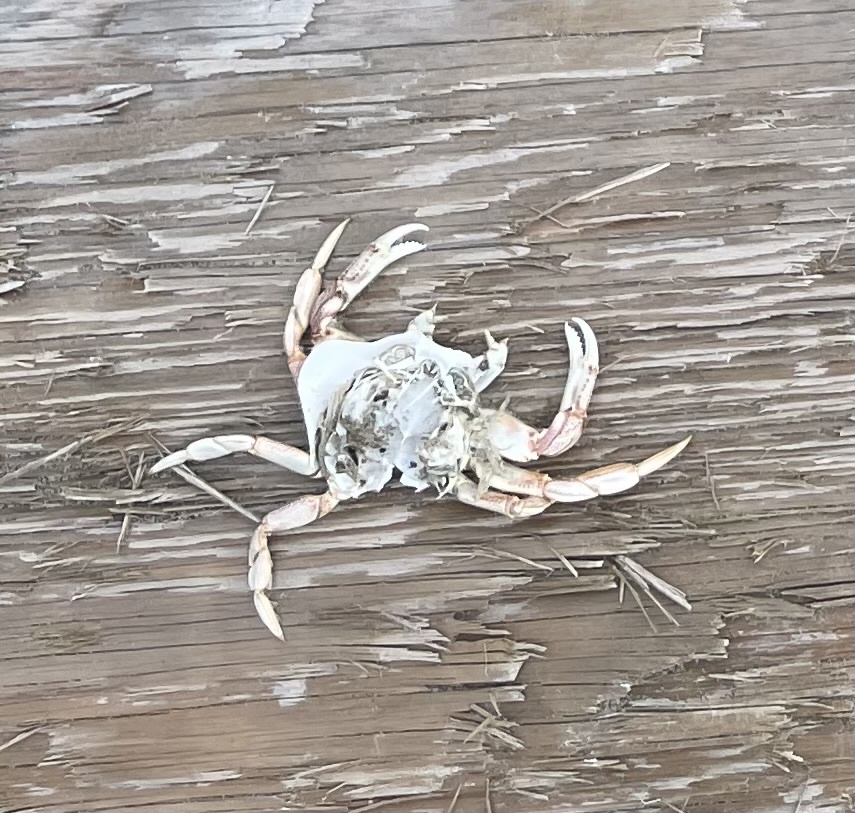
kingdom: Animalia
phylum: Arthropoda
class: Malacostraca
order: Decapoda
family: Cancridae
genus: Metacarcinus
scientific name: Metacarcinus magister
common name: Californian crab
